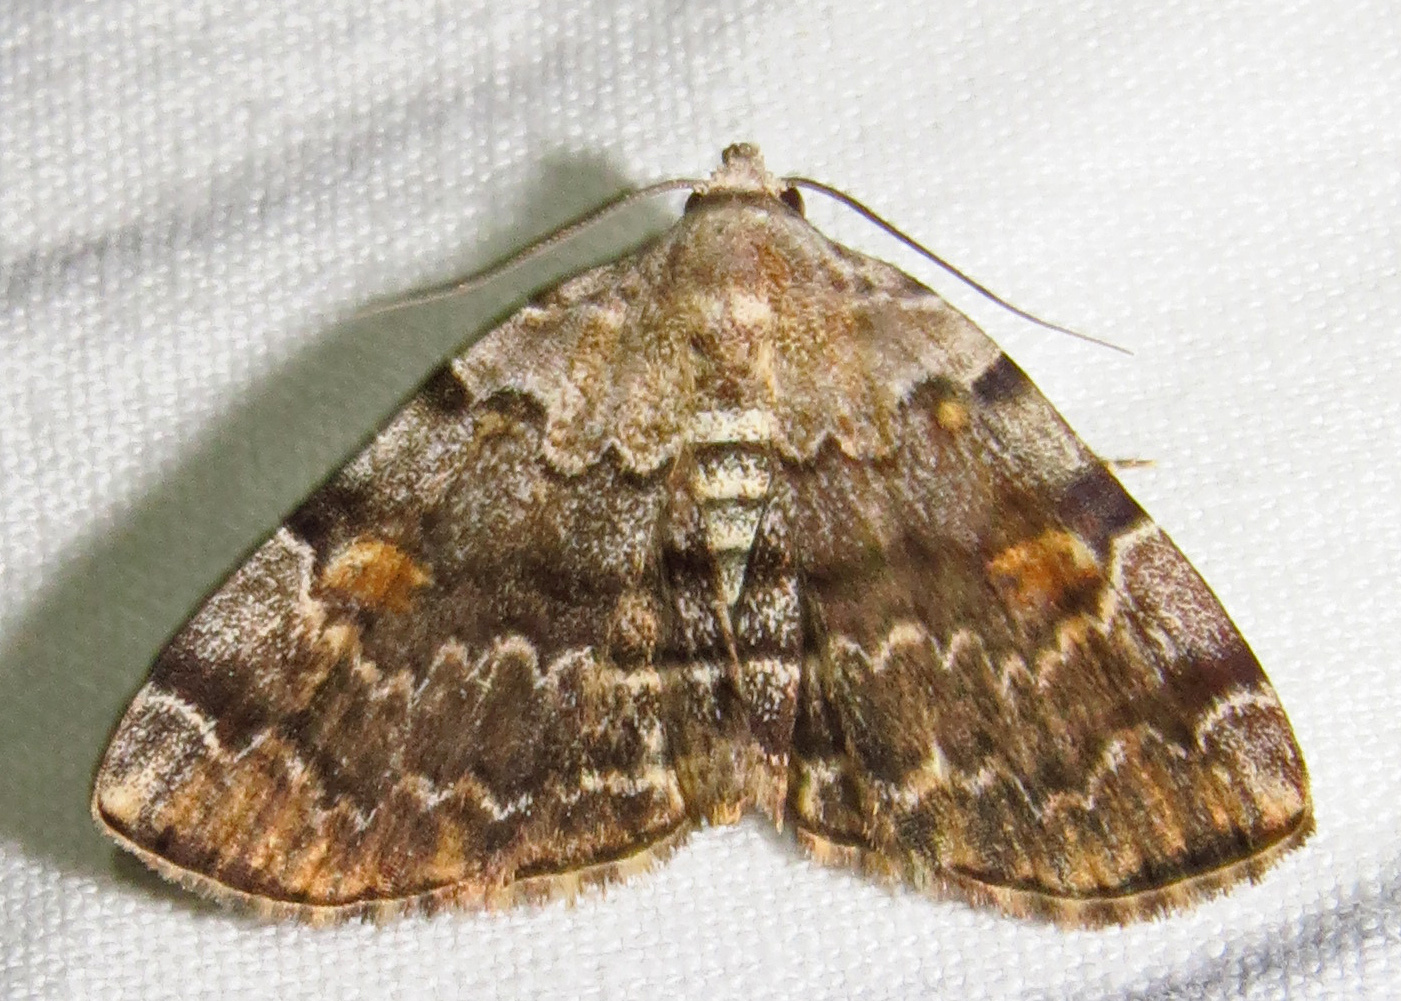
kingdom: Animalia
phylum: Arthropoda
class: Insecta
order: Lepidoptera
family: Erebidae
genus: Idia
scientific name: Idia americalis
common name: American idia moth
